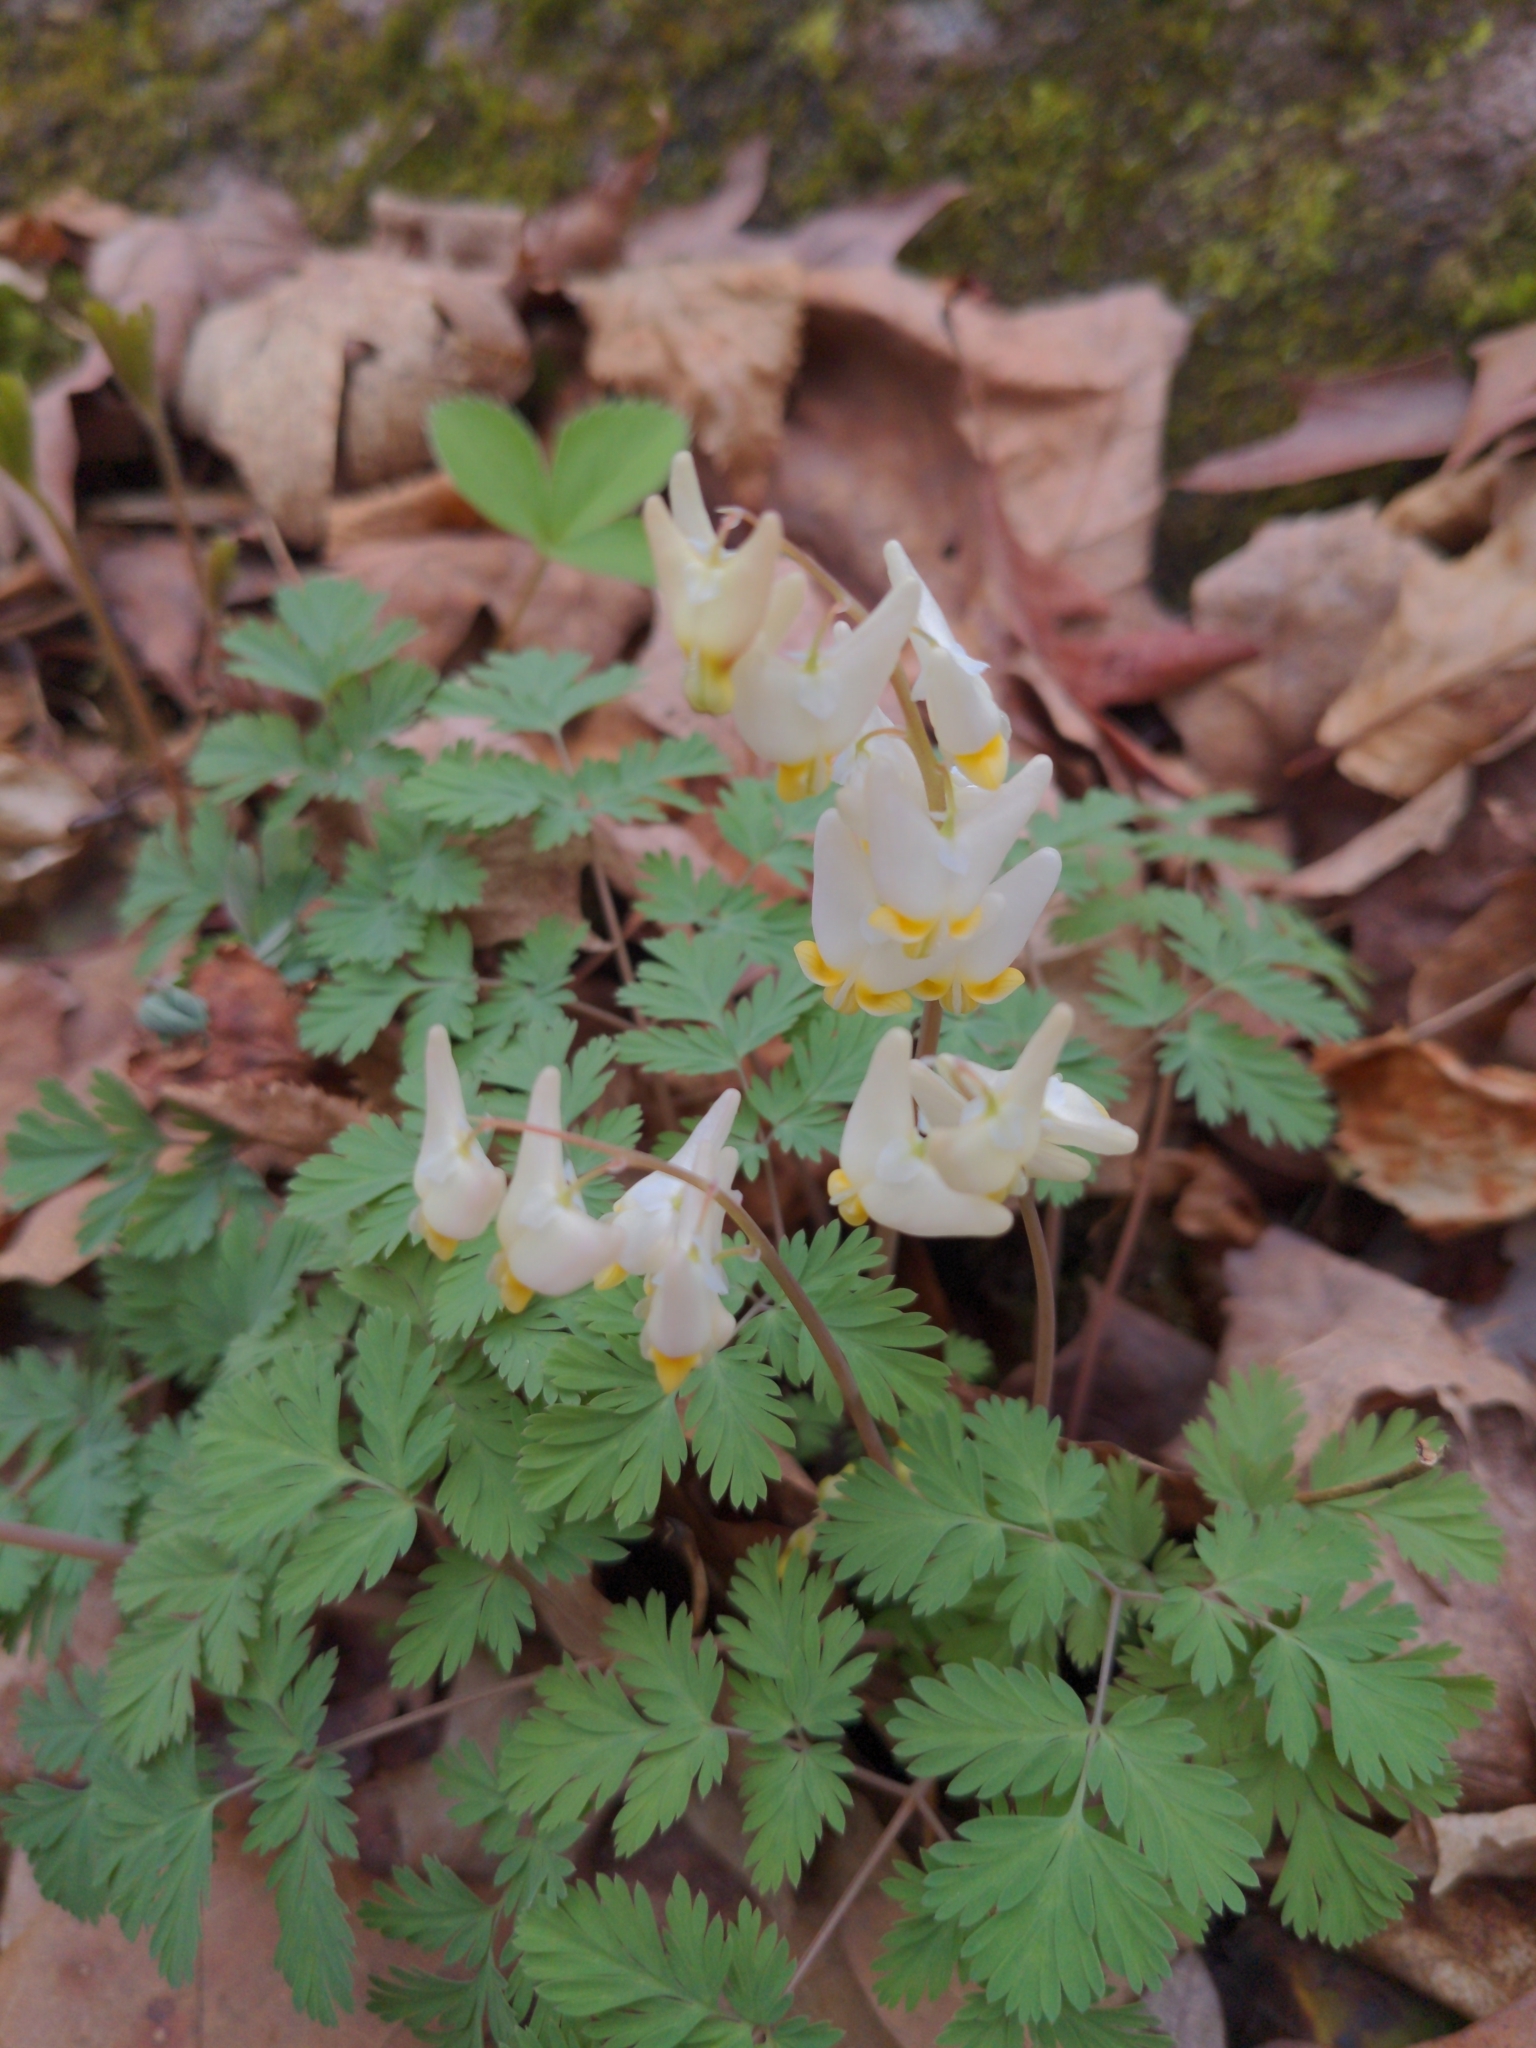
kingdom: Plantae
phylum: Tracheophyta
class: Magnoliopsida
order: Ranunculales
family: Papaveraceae
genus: Dicentra
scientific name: Dicentra cucullaria
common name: Dutchman's breeches
